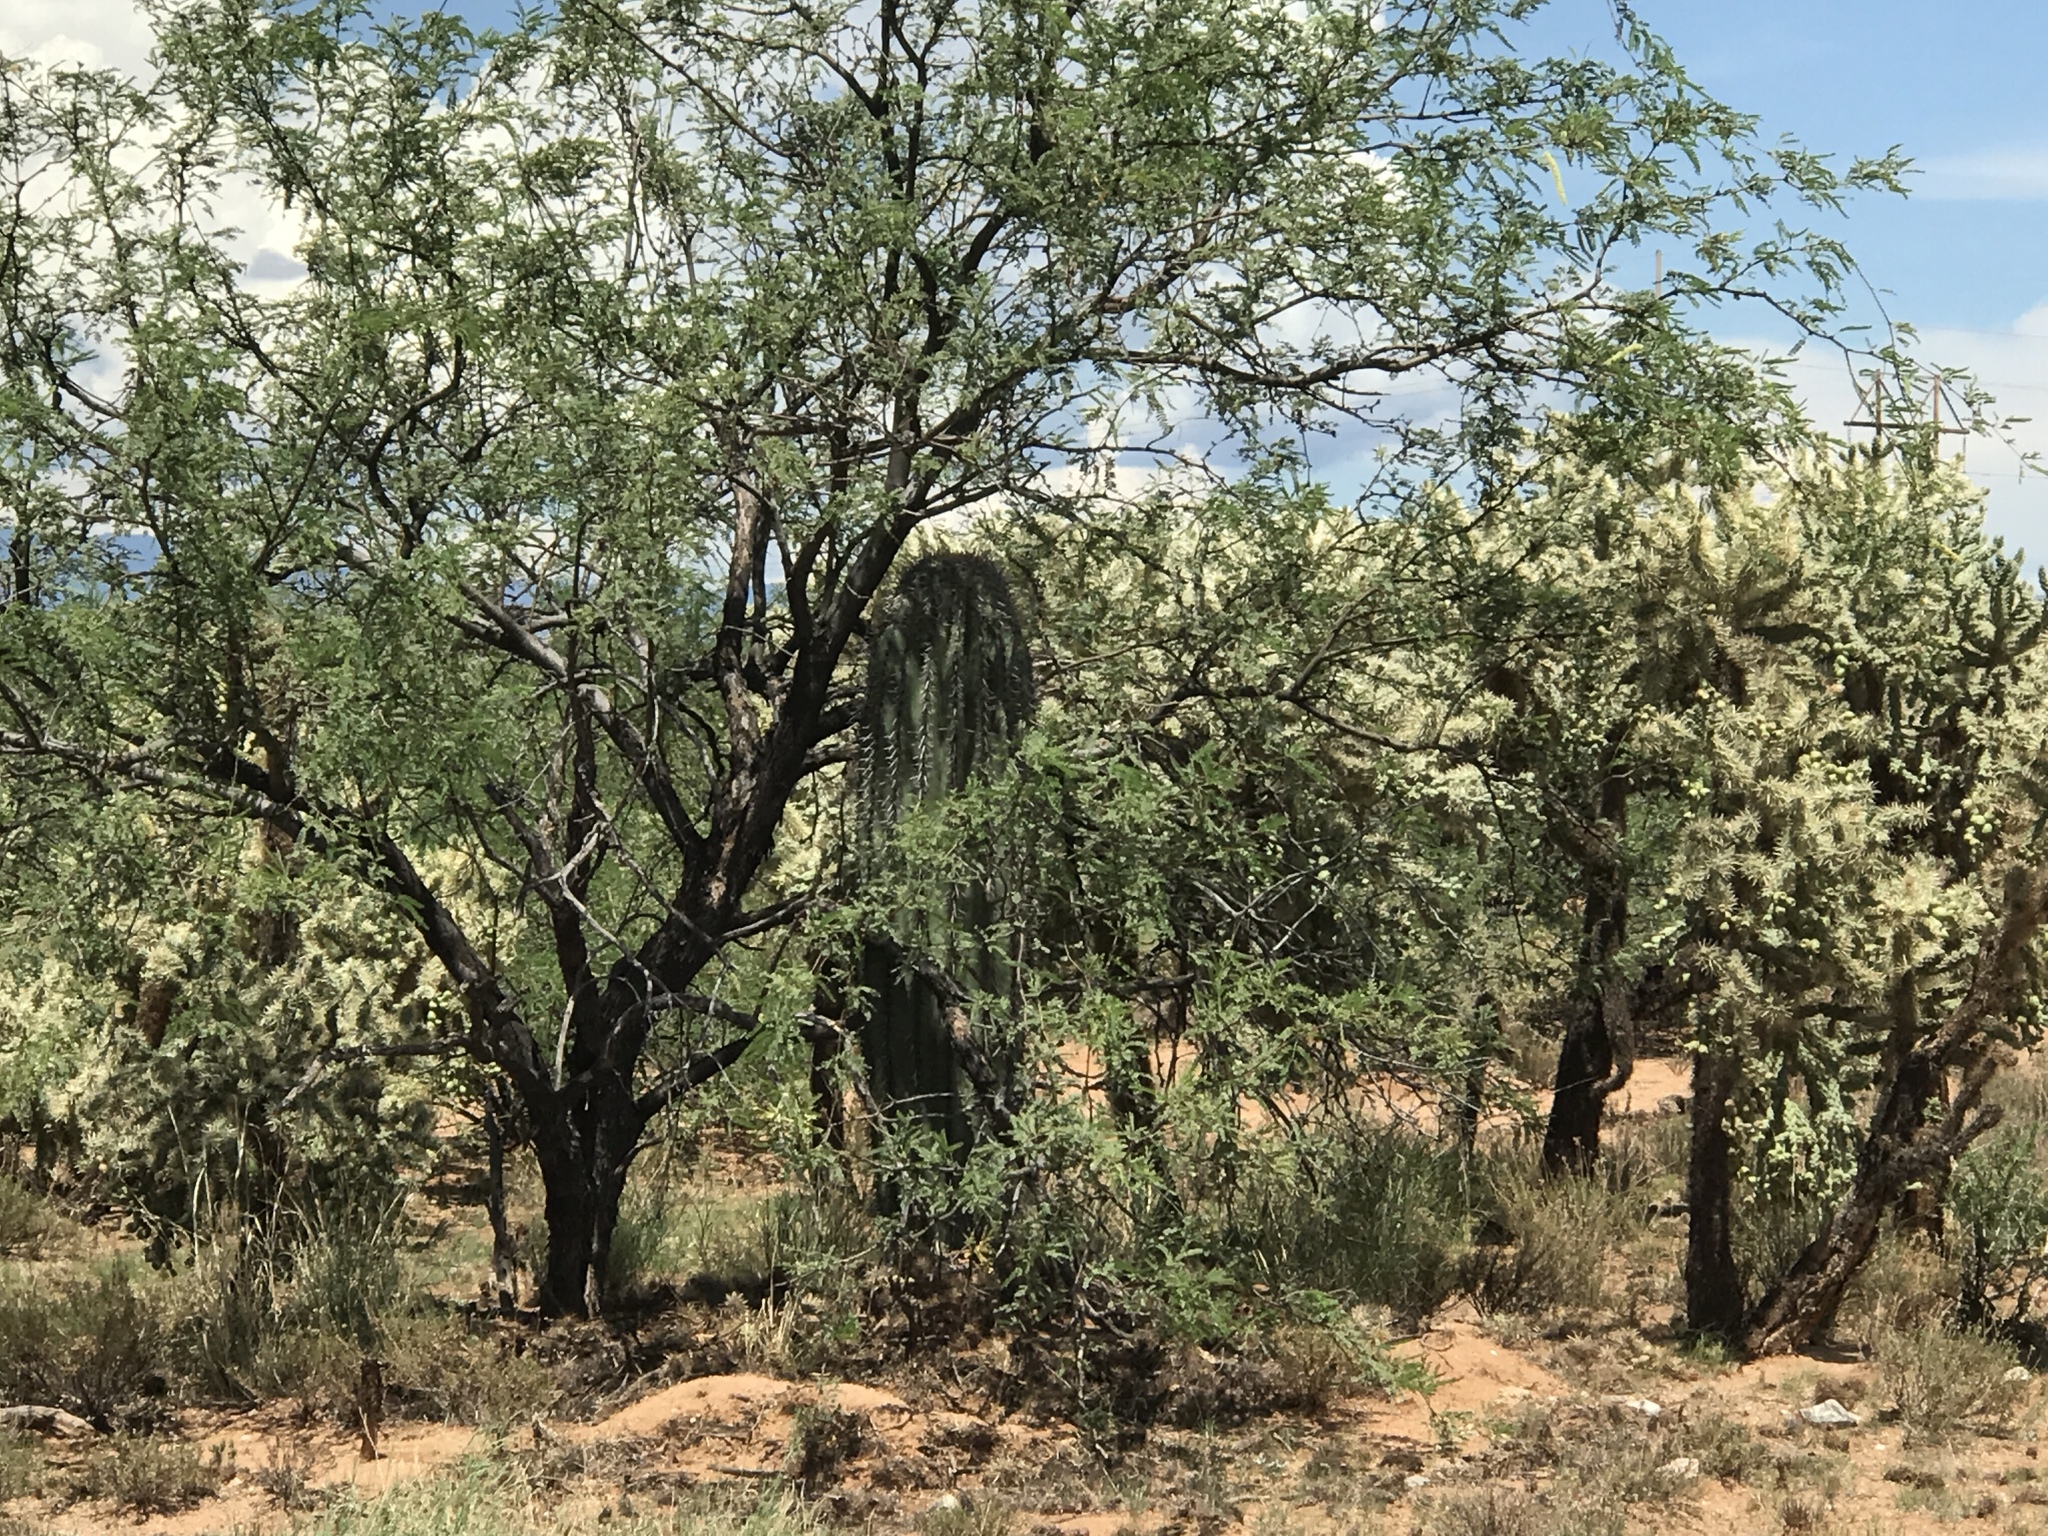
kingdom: Plantae
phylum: Tracheophyta
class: Magnoliopsida
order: Fabales
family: Fabaceae
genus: Prosopis
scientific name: Prosopis velutina
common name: Velvet mesquite
